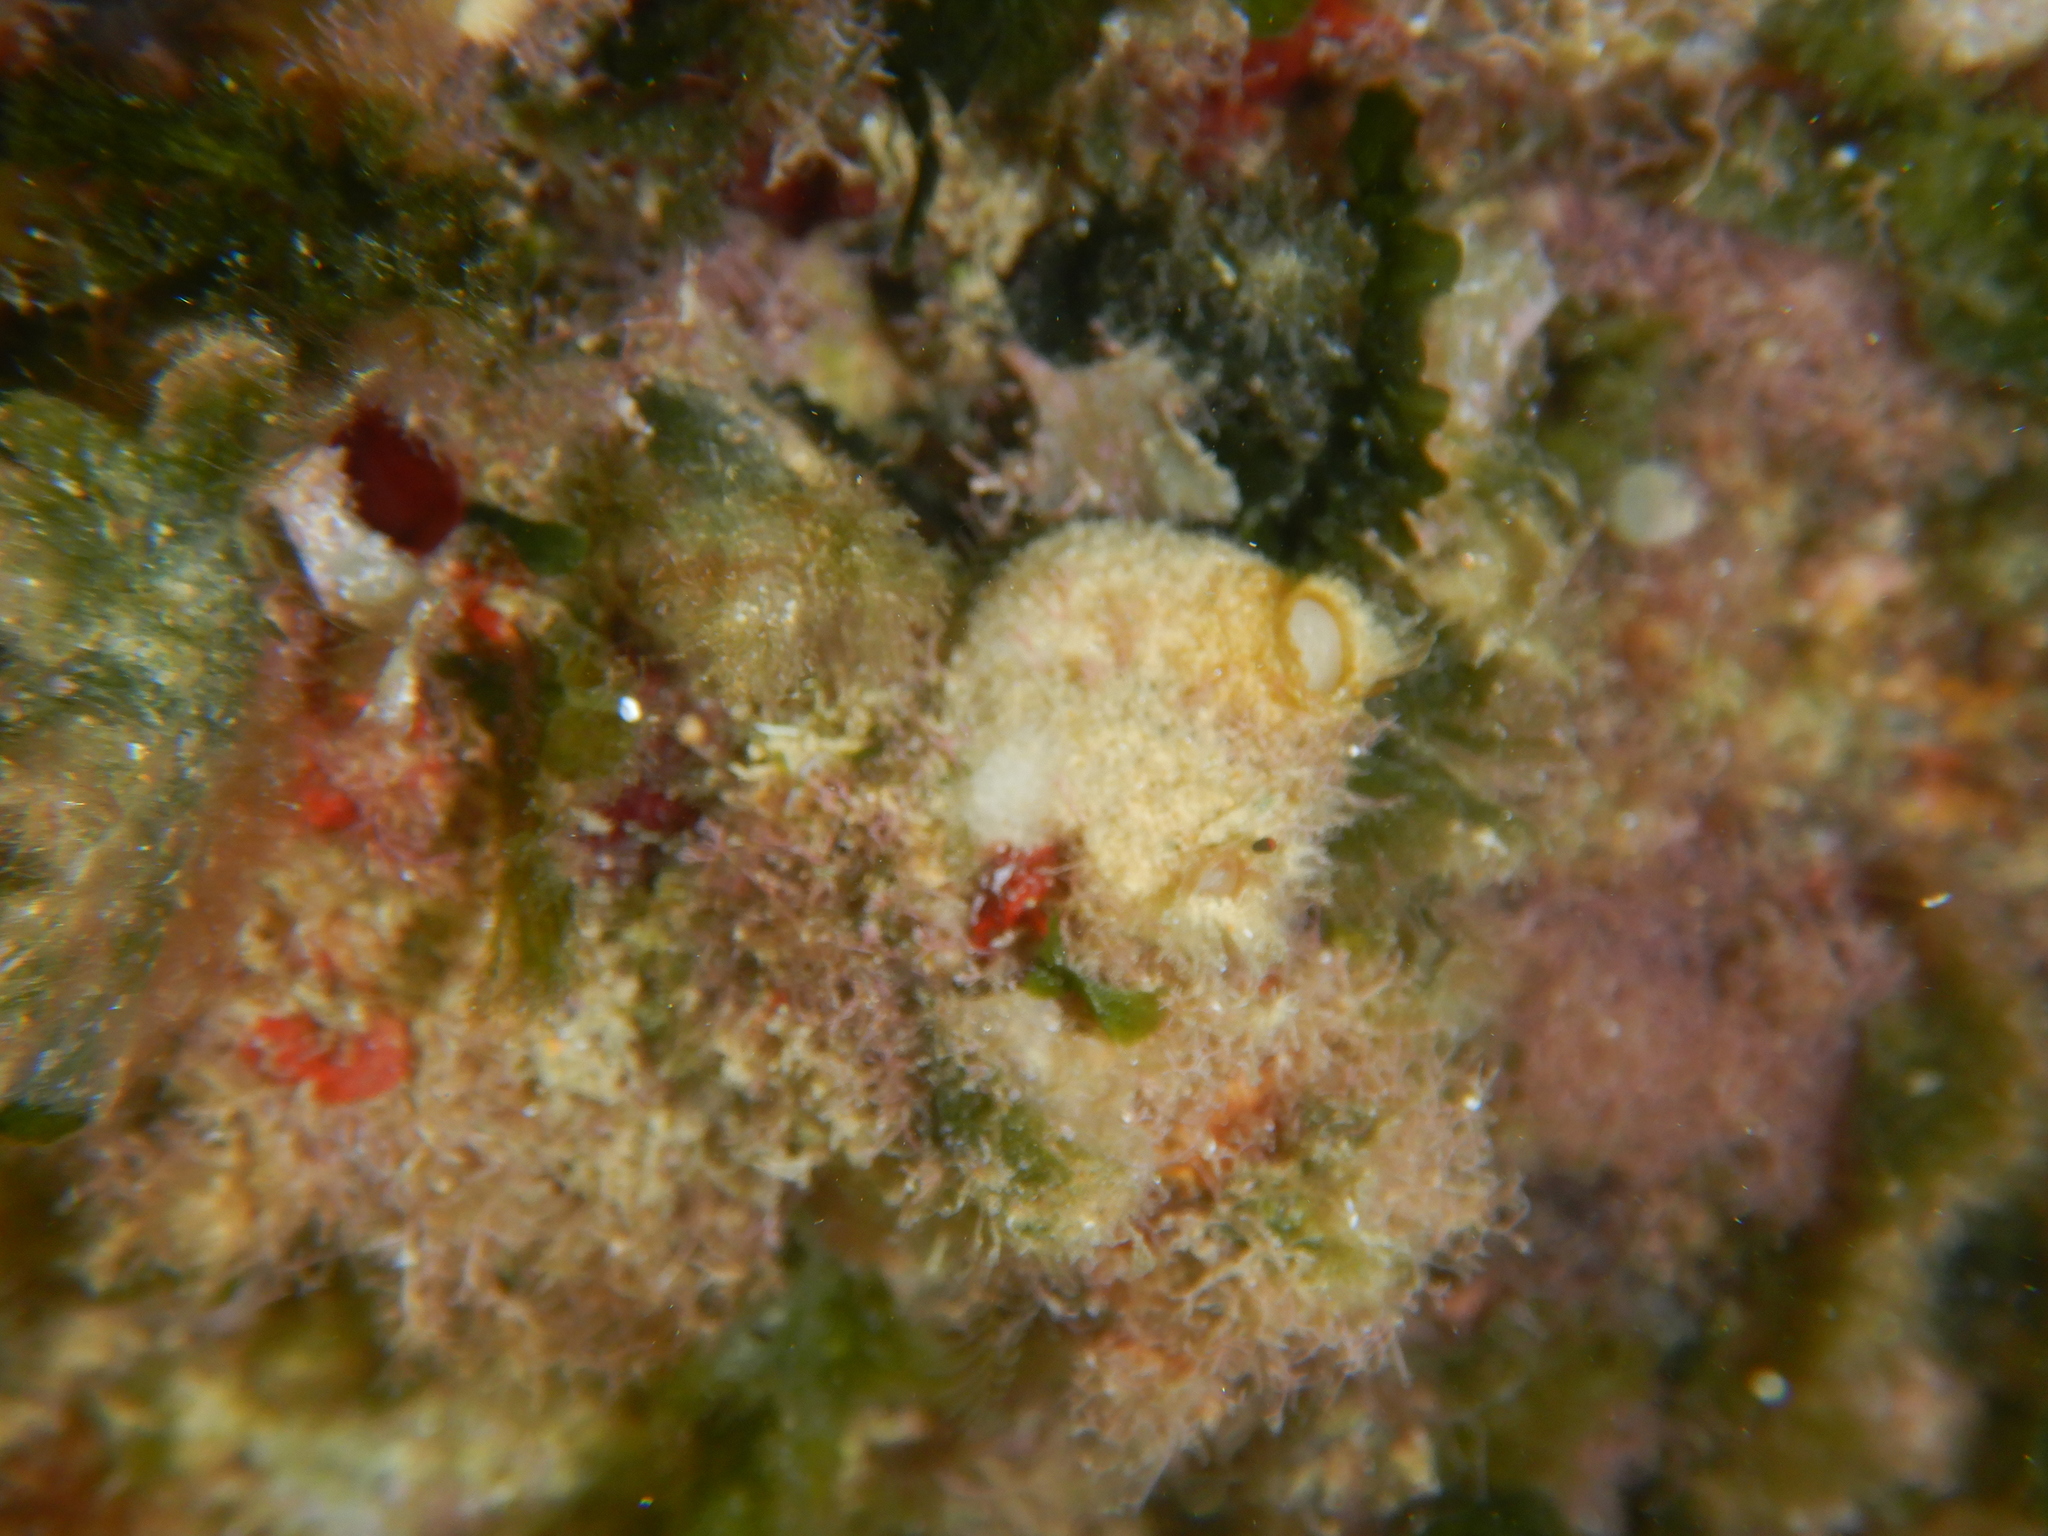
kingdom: Animalia
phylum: Porifera
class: Calcarea
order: Leucosolenida
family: Syconidae
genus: Sycon
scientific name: Sycon ciliatum
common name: Ciliated sponge
